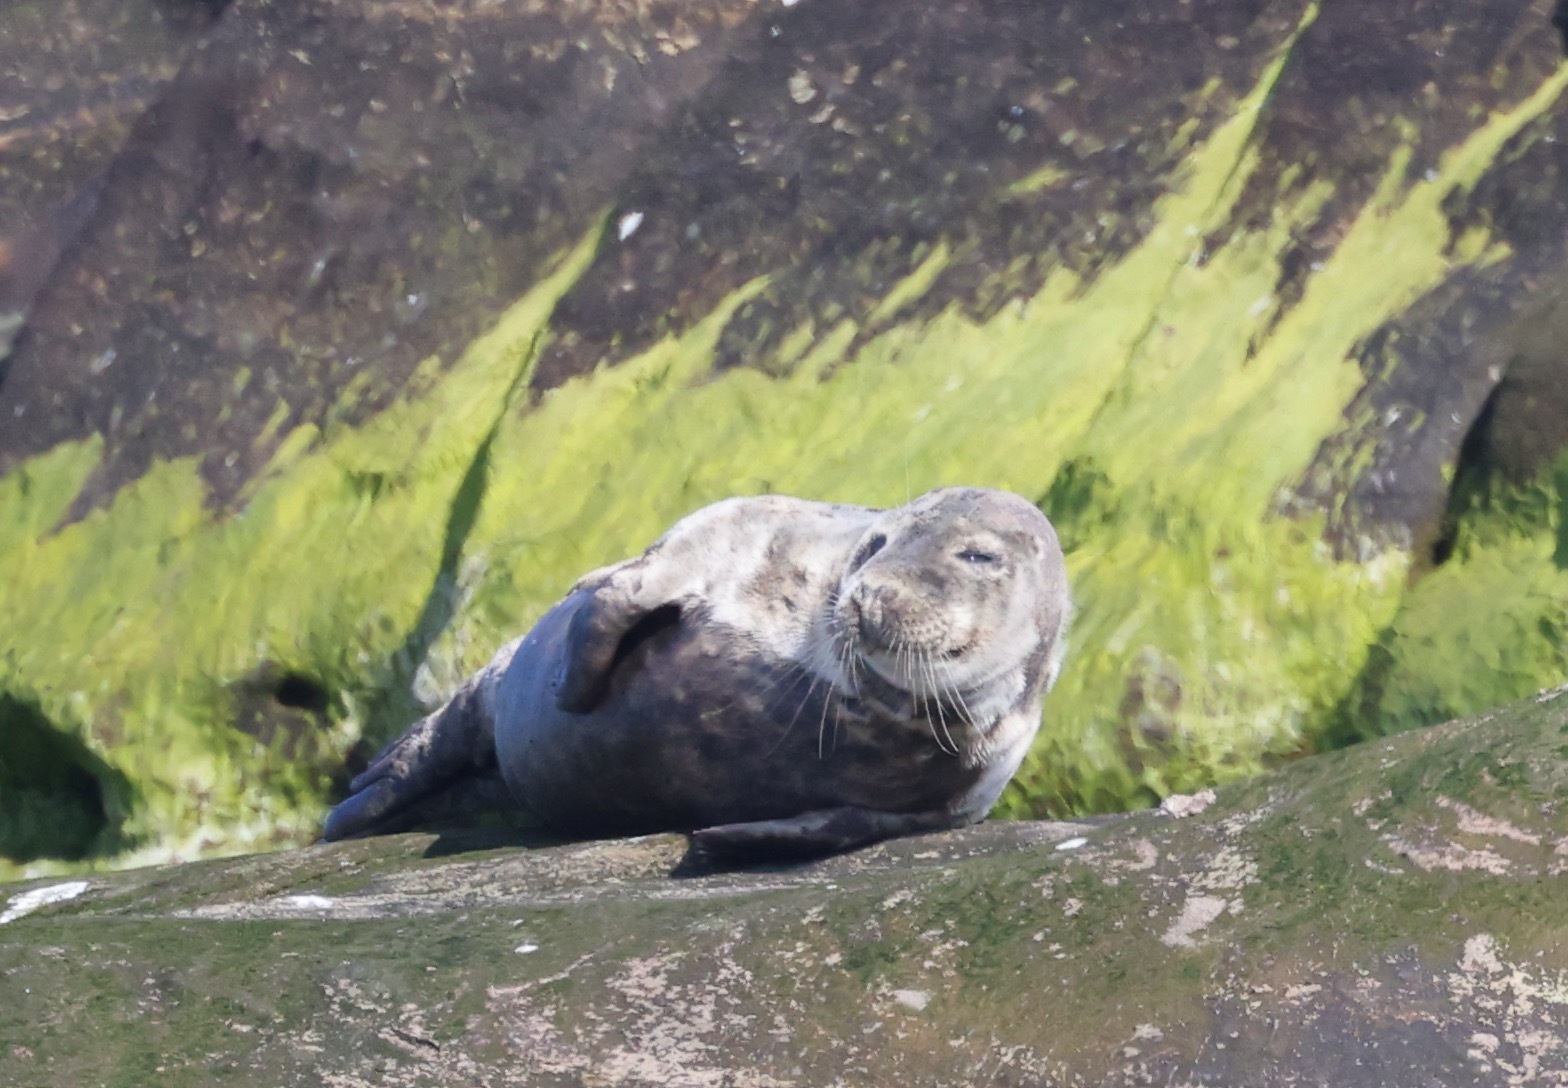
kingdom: Animalia
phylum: Chordata
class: Mammalia
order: Carnivora
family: Phocidae
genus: Halichoerus
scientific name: Halichoerus grypus
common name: Grey seal
